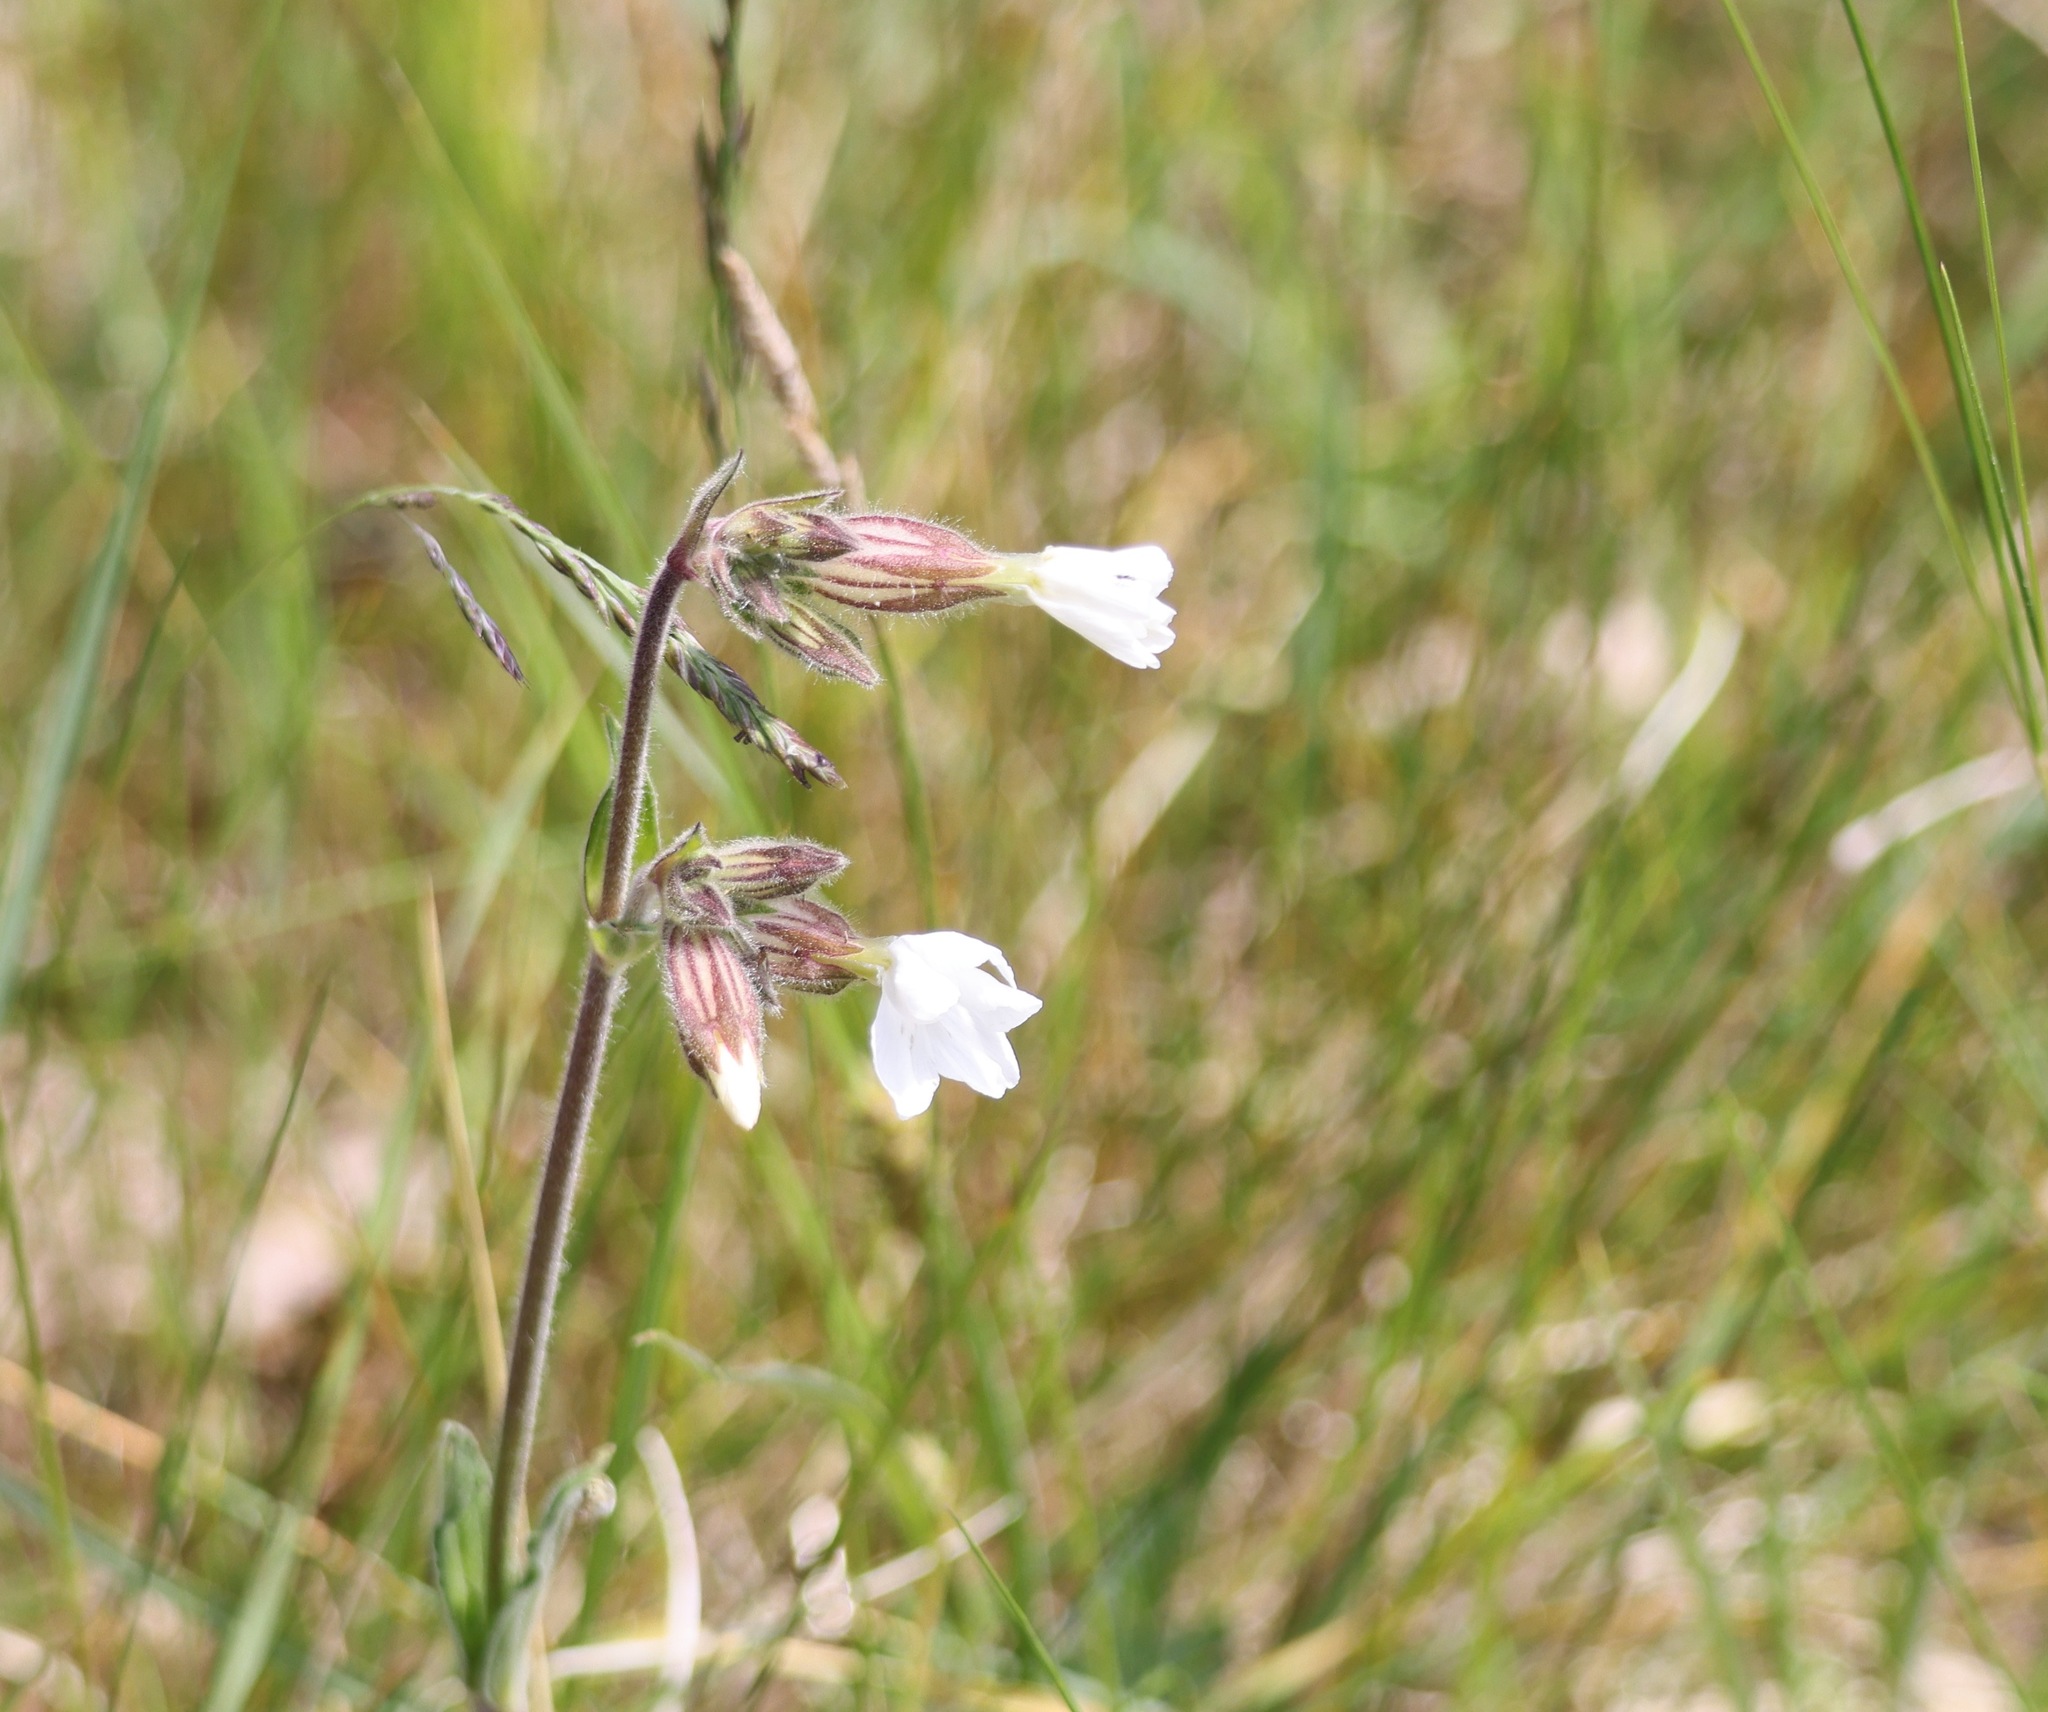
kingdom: Plantae
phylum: Tracheophyta
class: Magnoliopsida
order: Caryophyllales
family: Caryophyllaceae
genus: Silene
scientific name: Silene latifolia
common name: White campion
